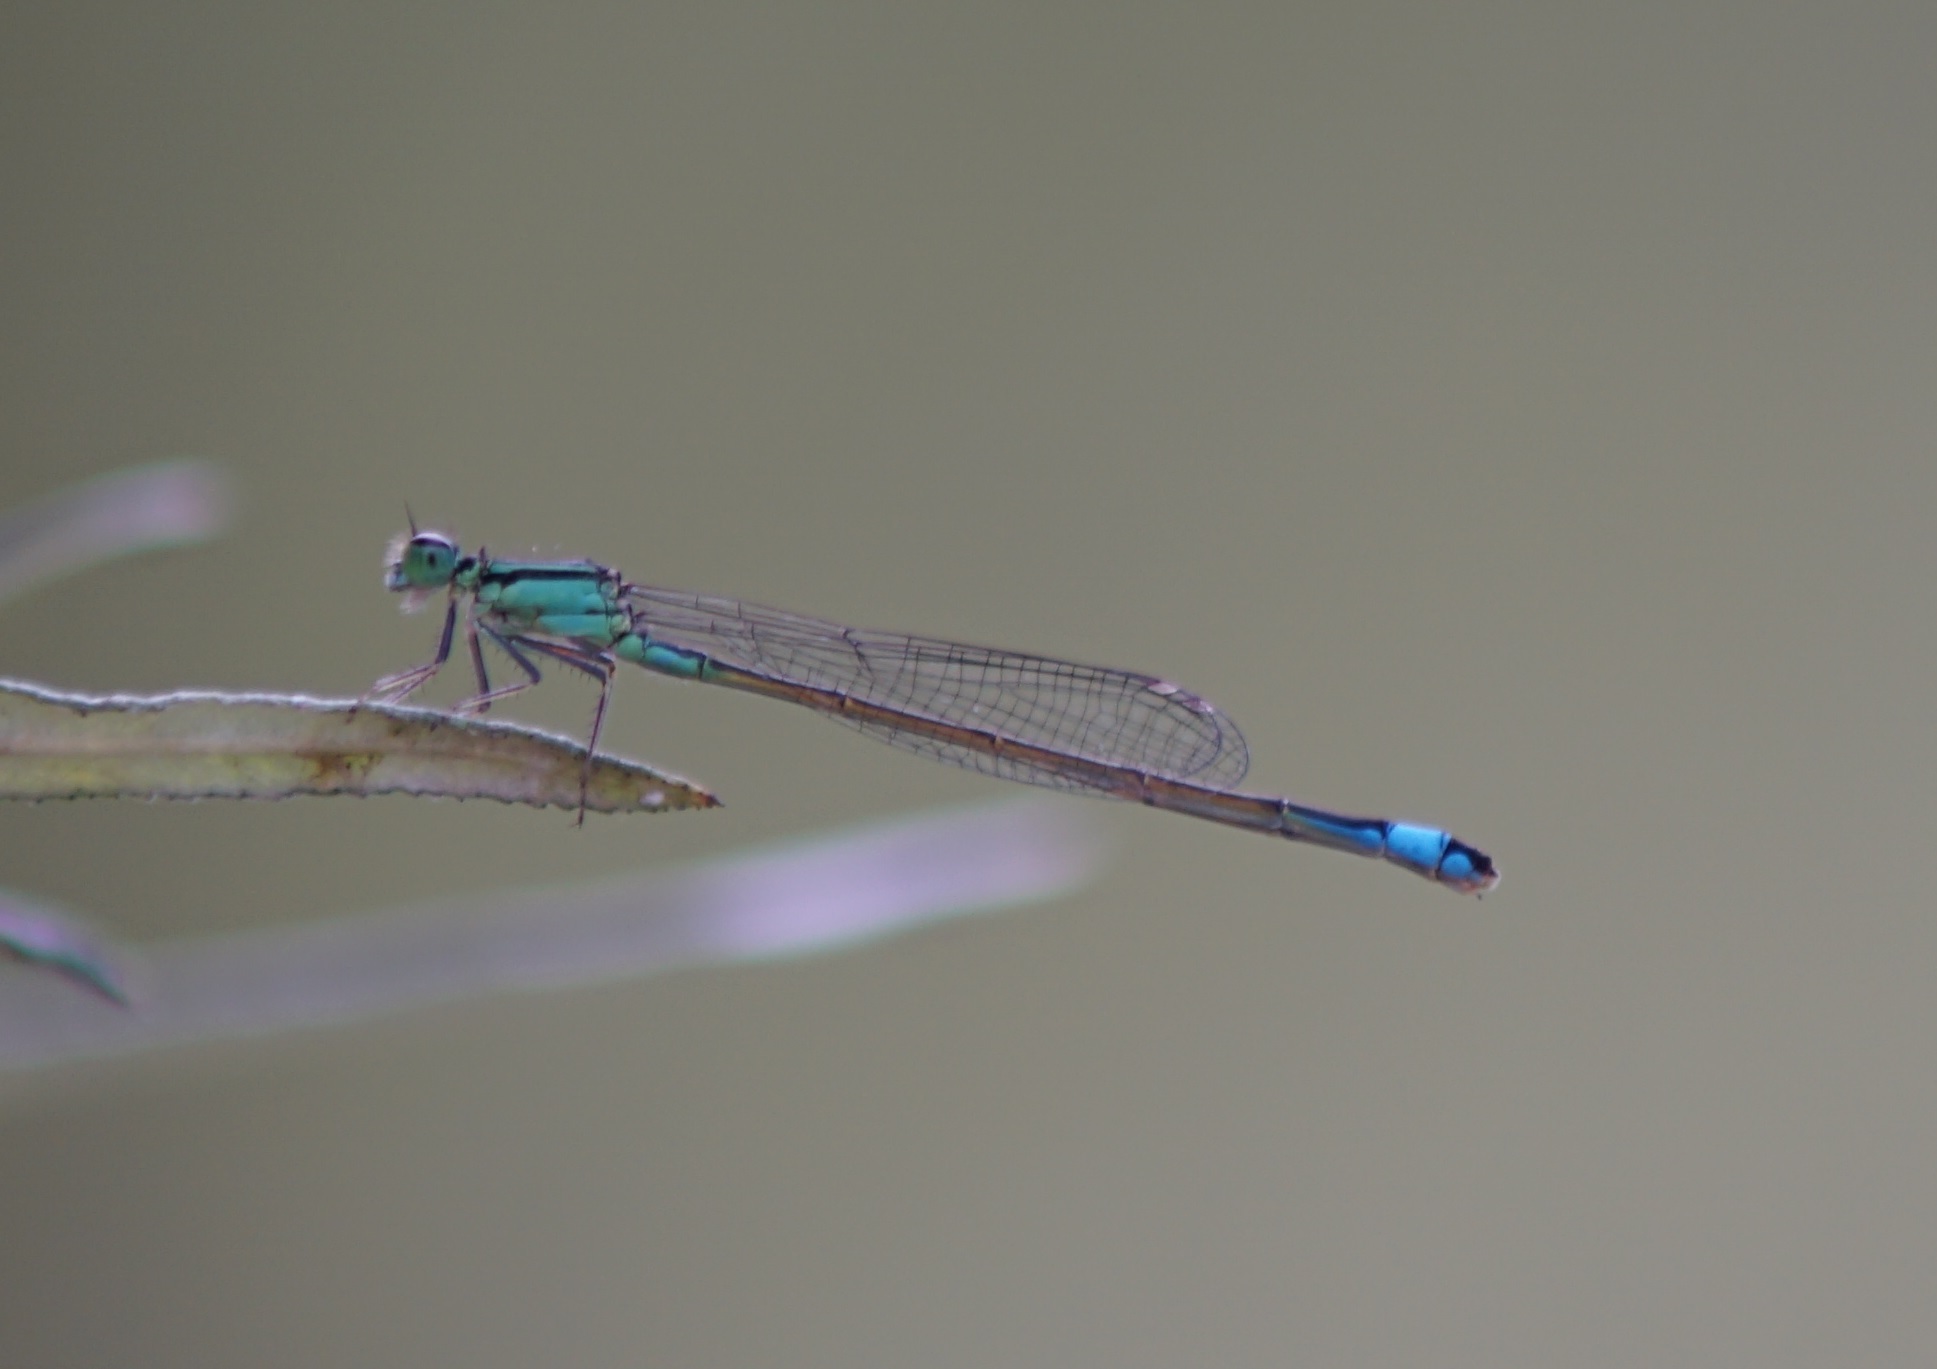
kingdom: Animalia
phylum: Arthropoda
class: Insecta
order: Odonata
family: Coenagrionidae
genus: Ischnura
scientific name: Ischnura elegans
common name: Blue-tailed damselfly
